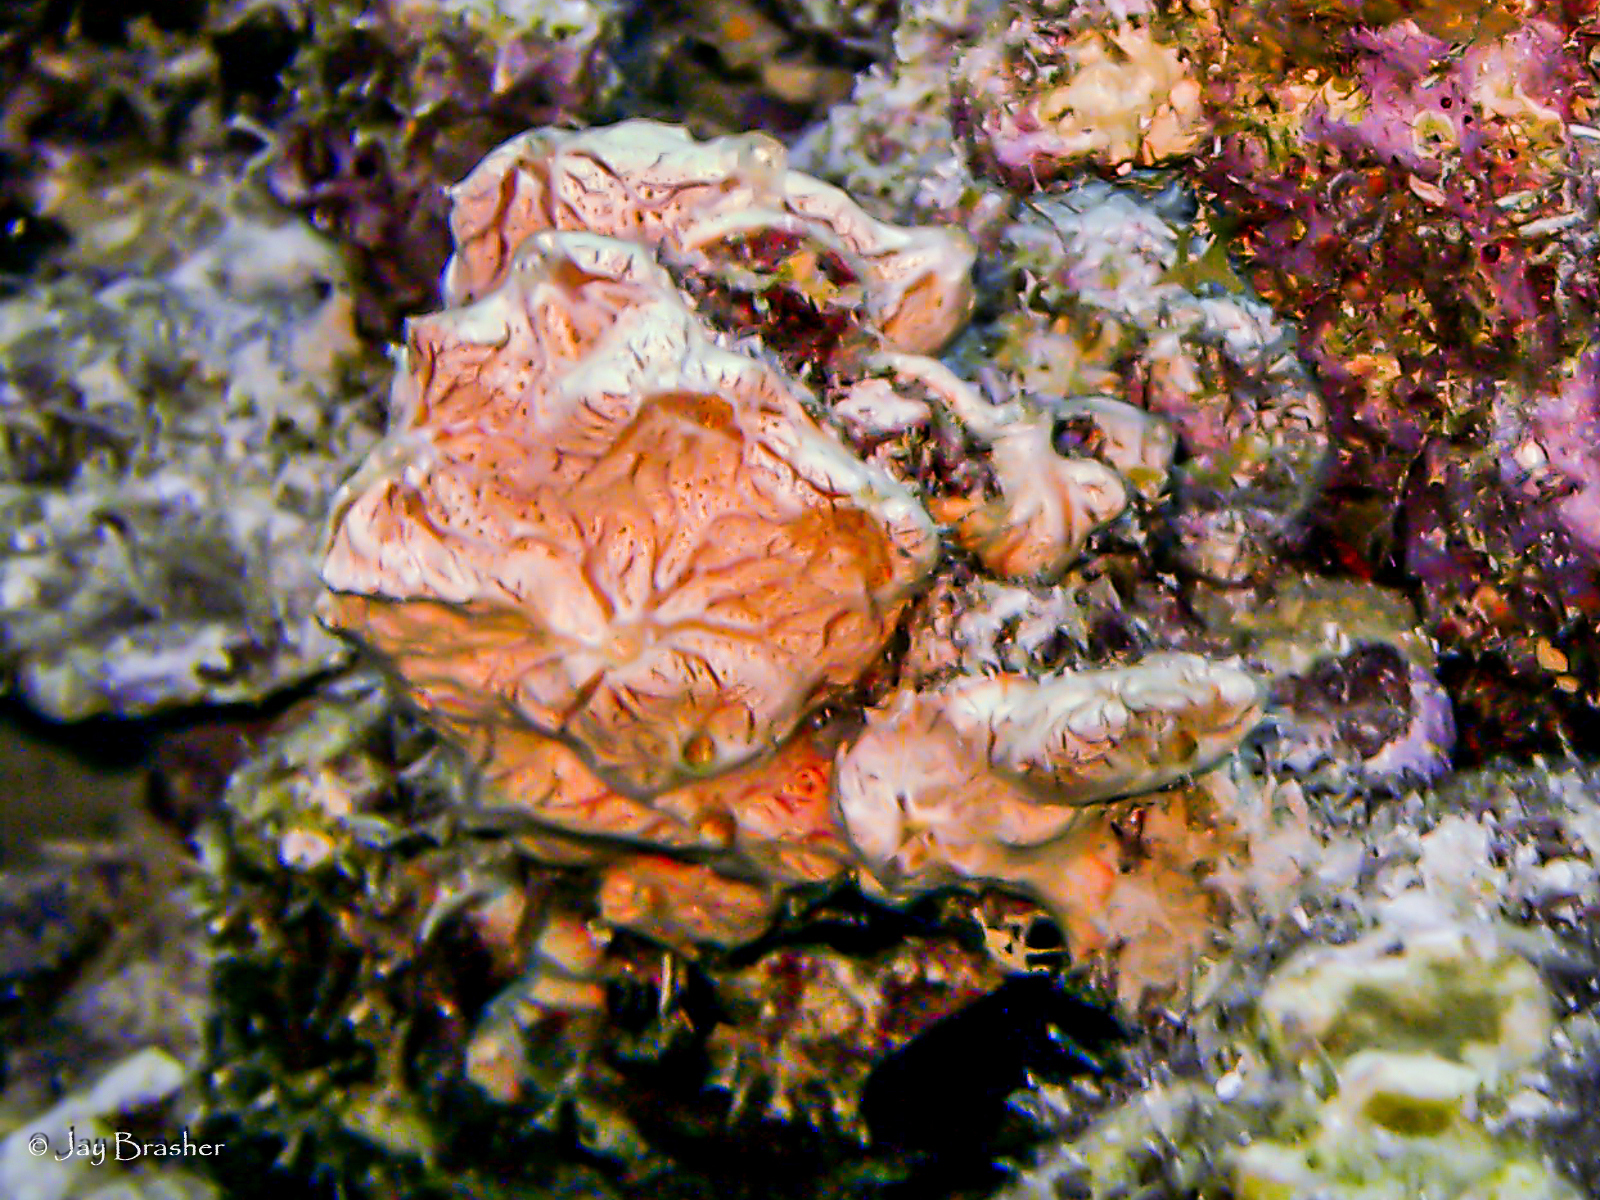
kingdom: Animalia
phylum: Porifera
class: Demospongiae
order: Poecilosclerida
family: Microcionidae
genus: Clathria
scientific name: Clathria curacaoensis
